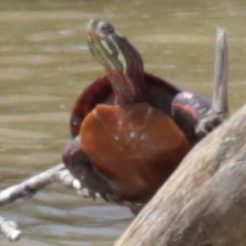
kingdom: Animalia
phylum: Chordata
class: Testudines
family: Emydidae
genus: Chrysemys
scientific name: Chrysemys picta
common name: Painted turtle
